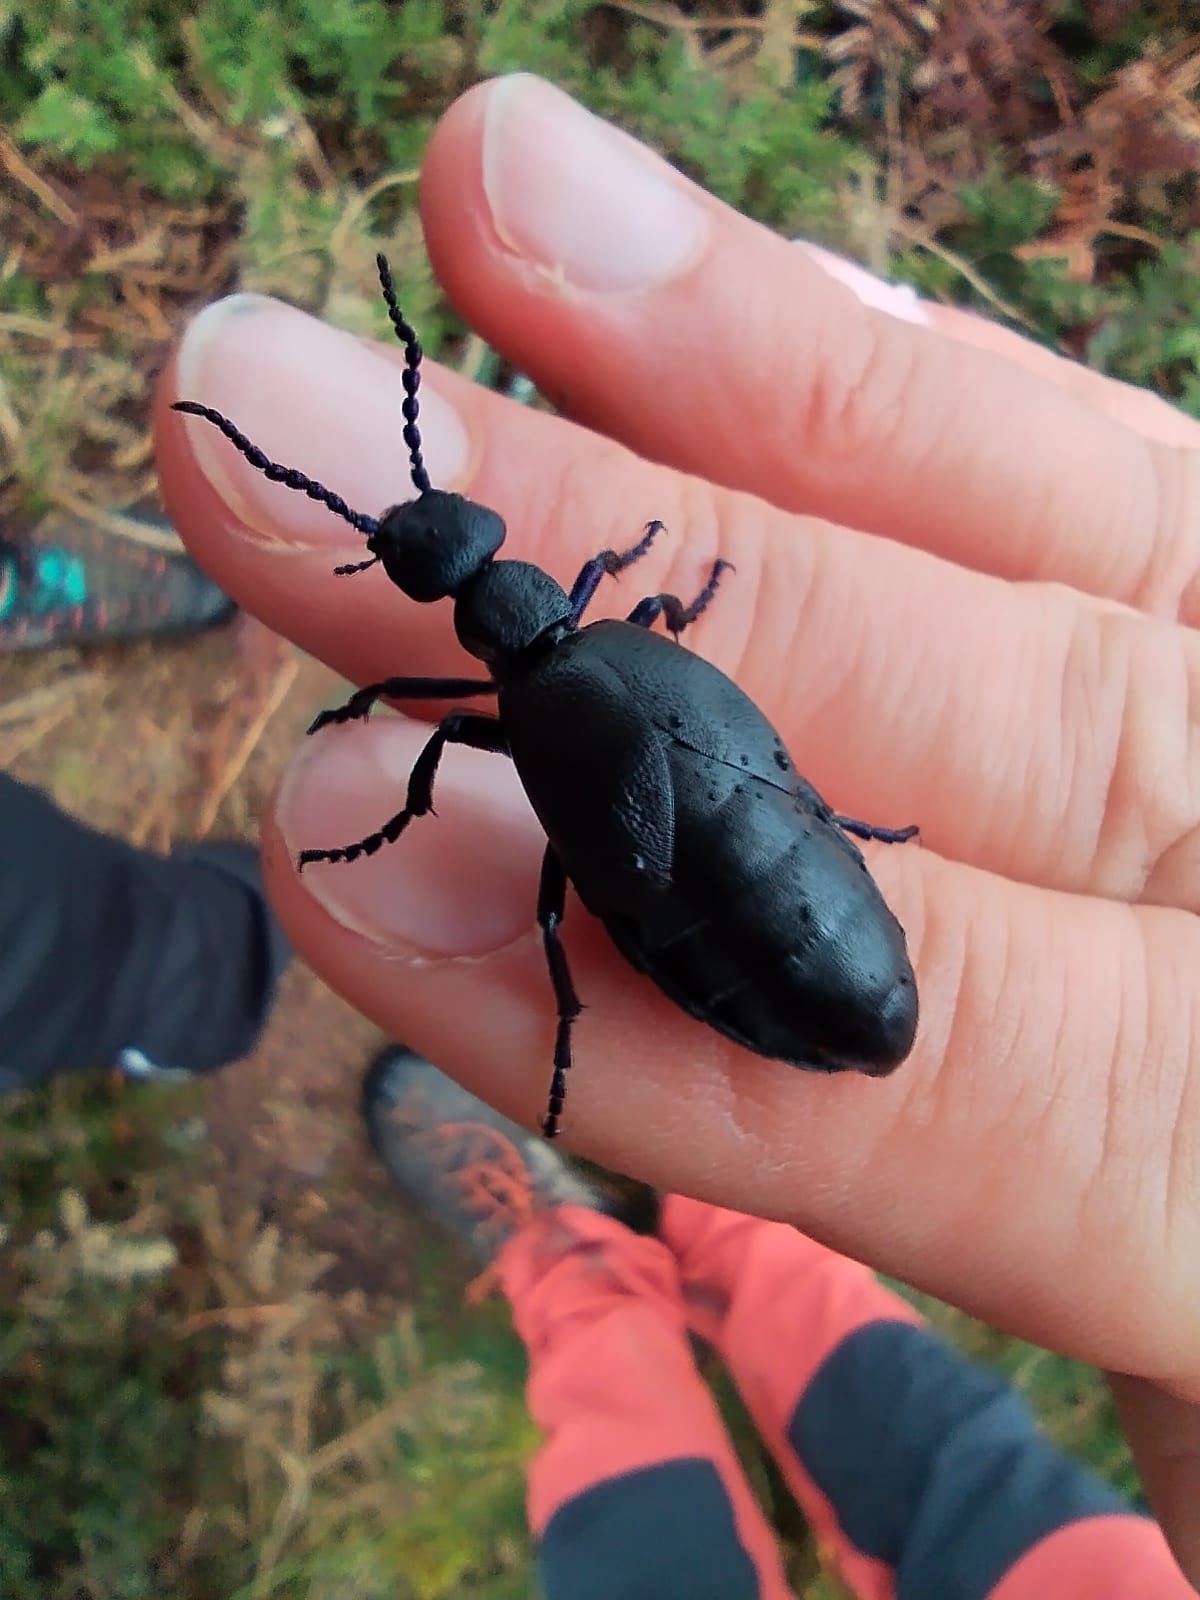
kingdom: Animalia
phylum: Arthropoda
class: Insecta
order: Coleoptera
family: Meloidae
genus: Meloe
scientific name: Meloe proscarabaeus
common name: Black oil-beetle
